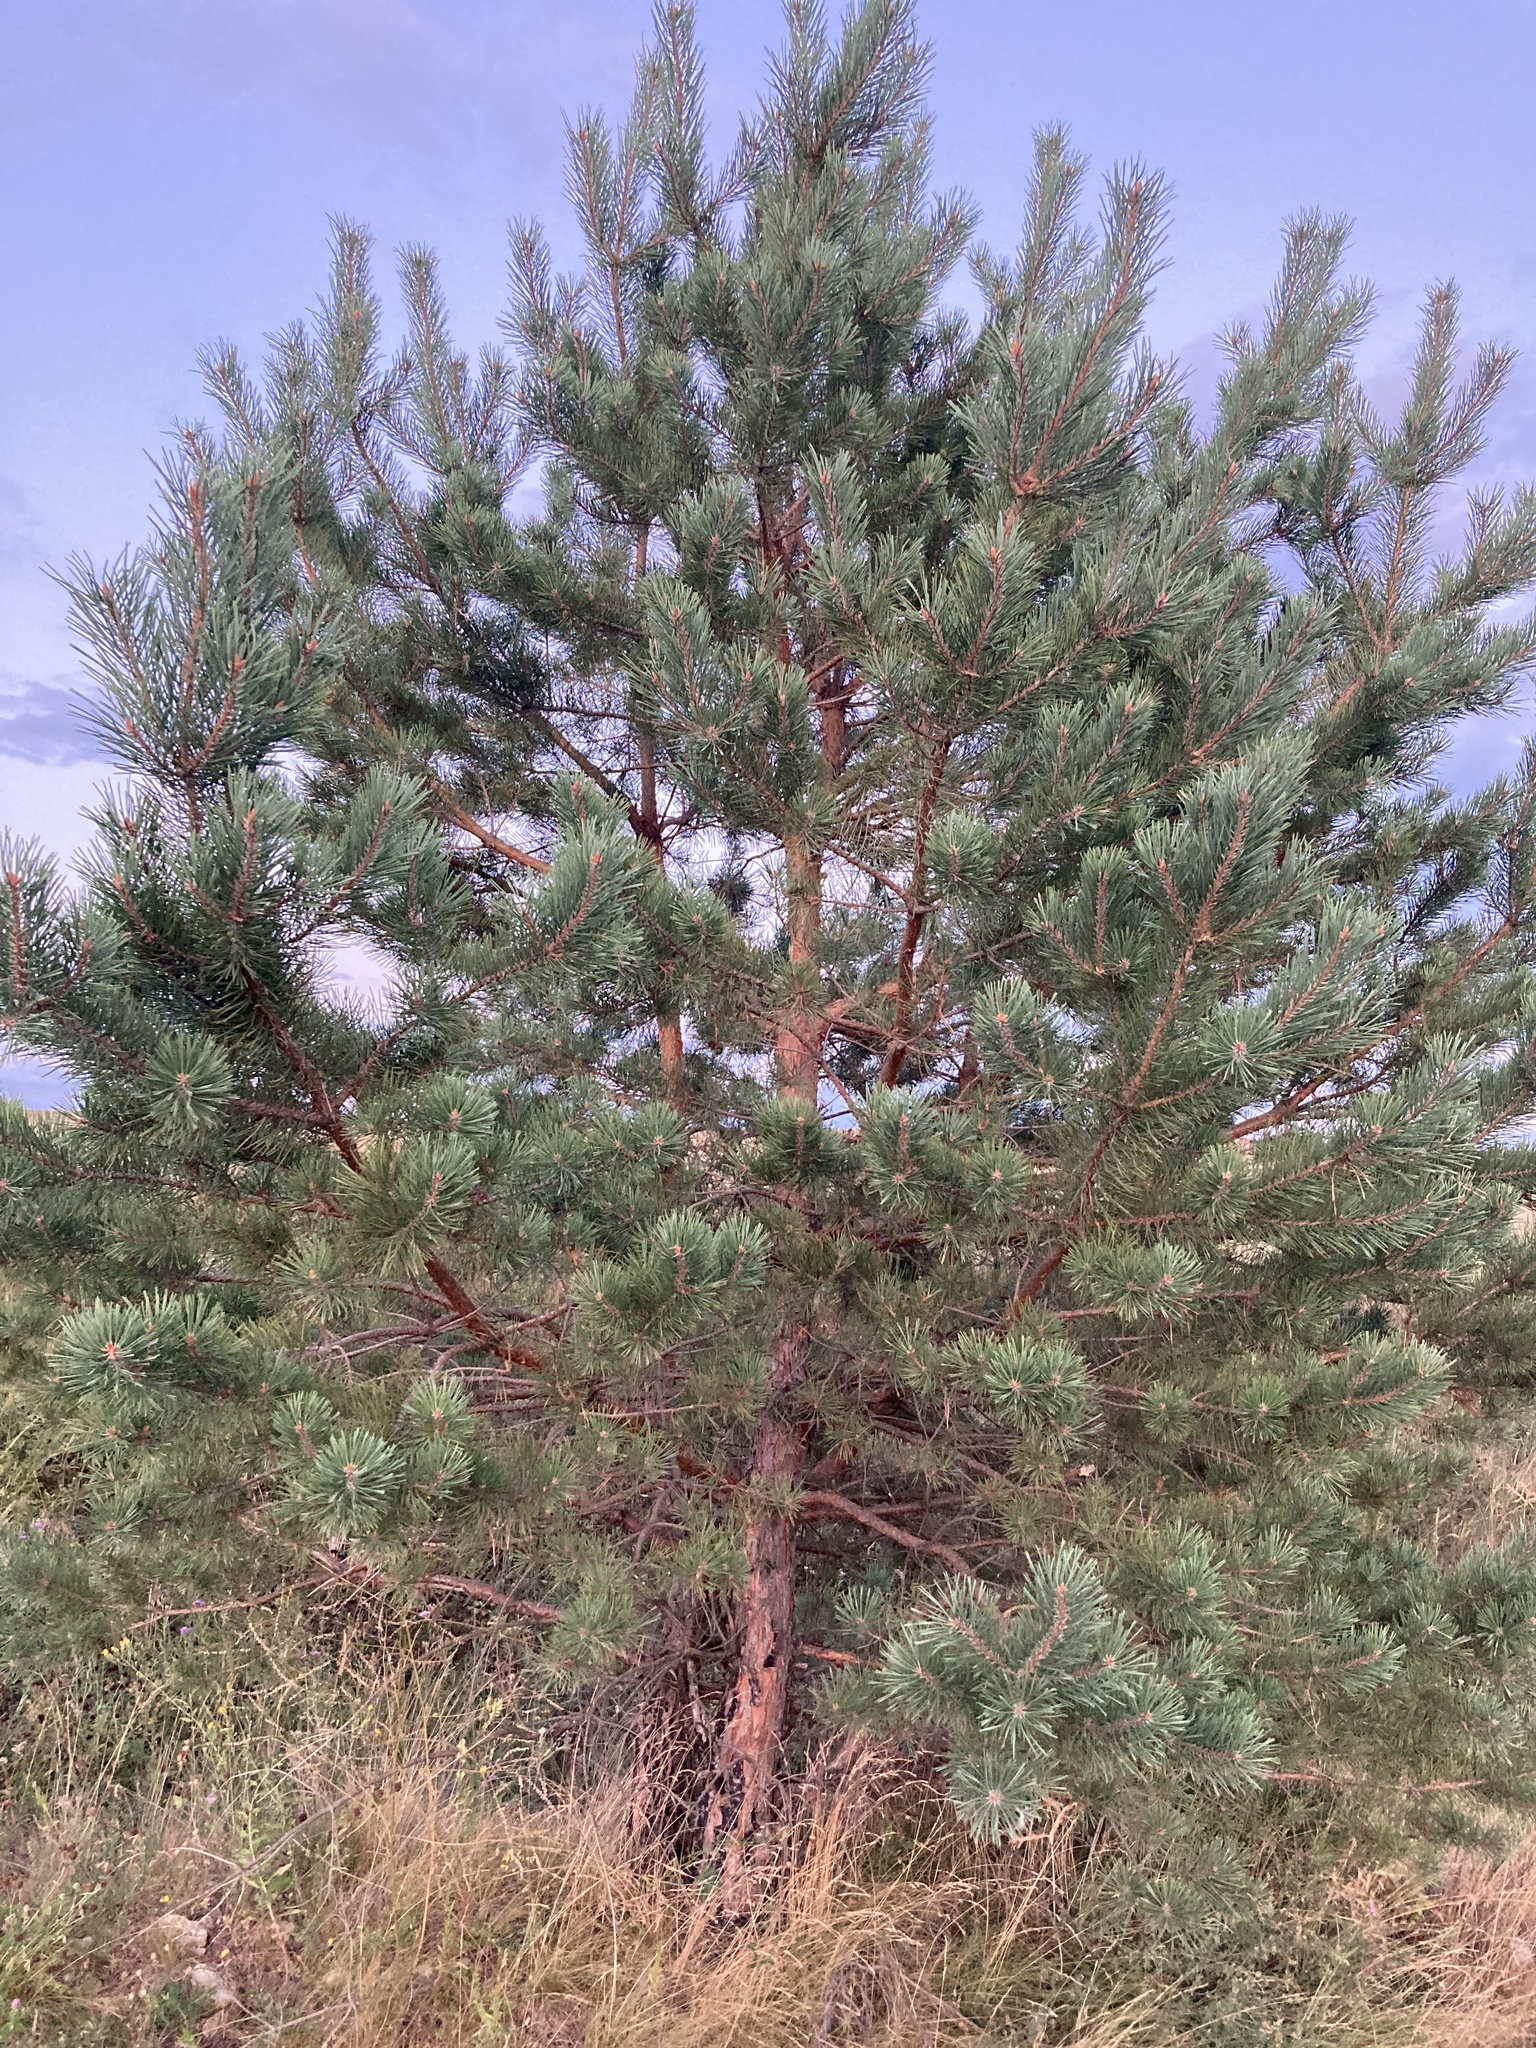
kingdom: Plantae
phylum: Tracheophyta
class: Pinopsida
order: Pinales
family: Pinaceae
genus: Pinus
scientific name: Pinus sylvestris
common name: Scots pine
